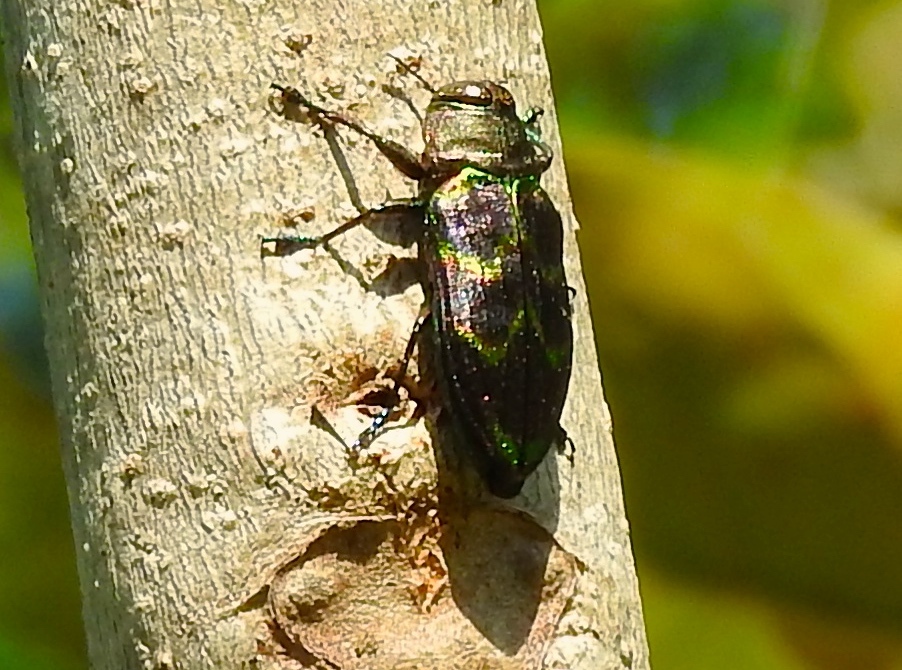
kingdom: Animalia
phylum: Arthropoda
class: Insecta
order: Coleoptera
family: Buprestidae
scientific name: Buprestidae
